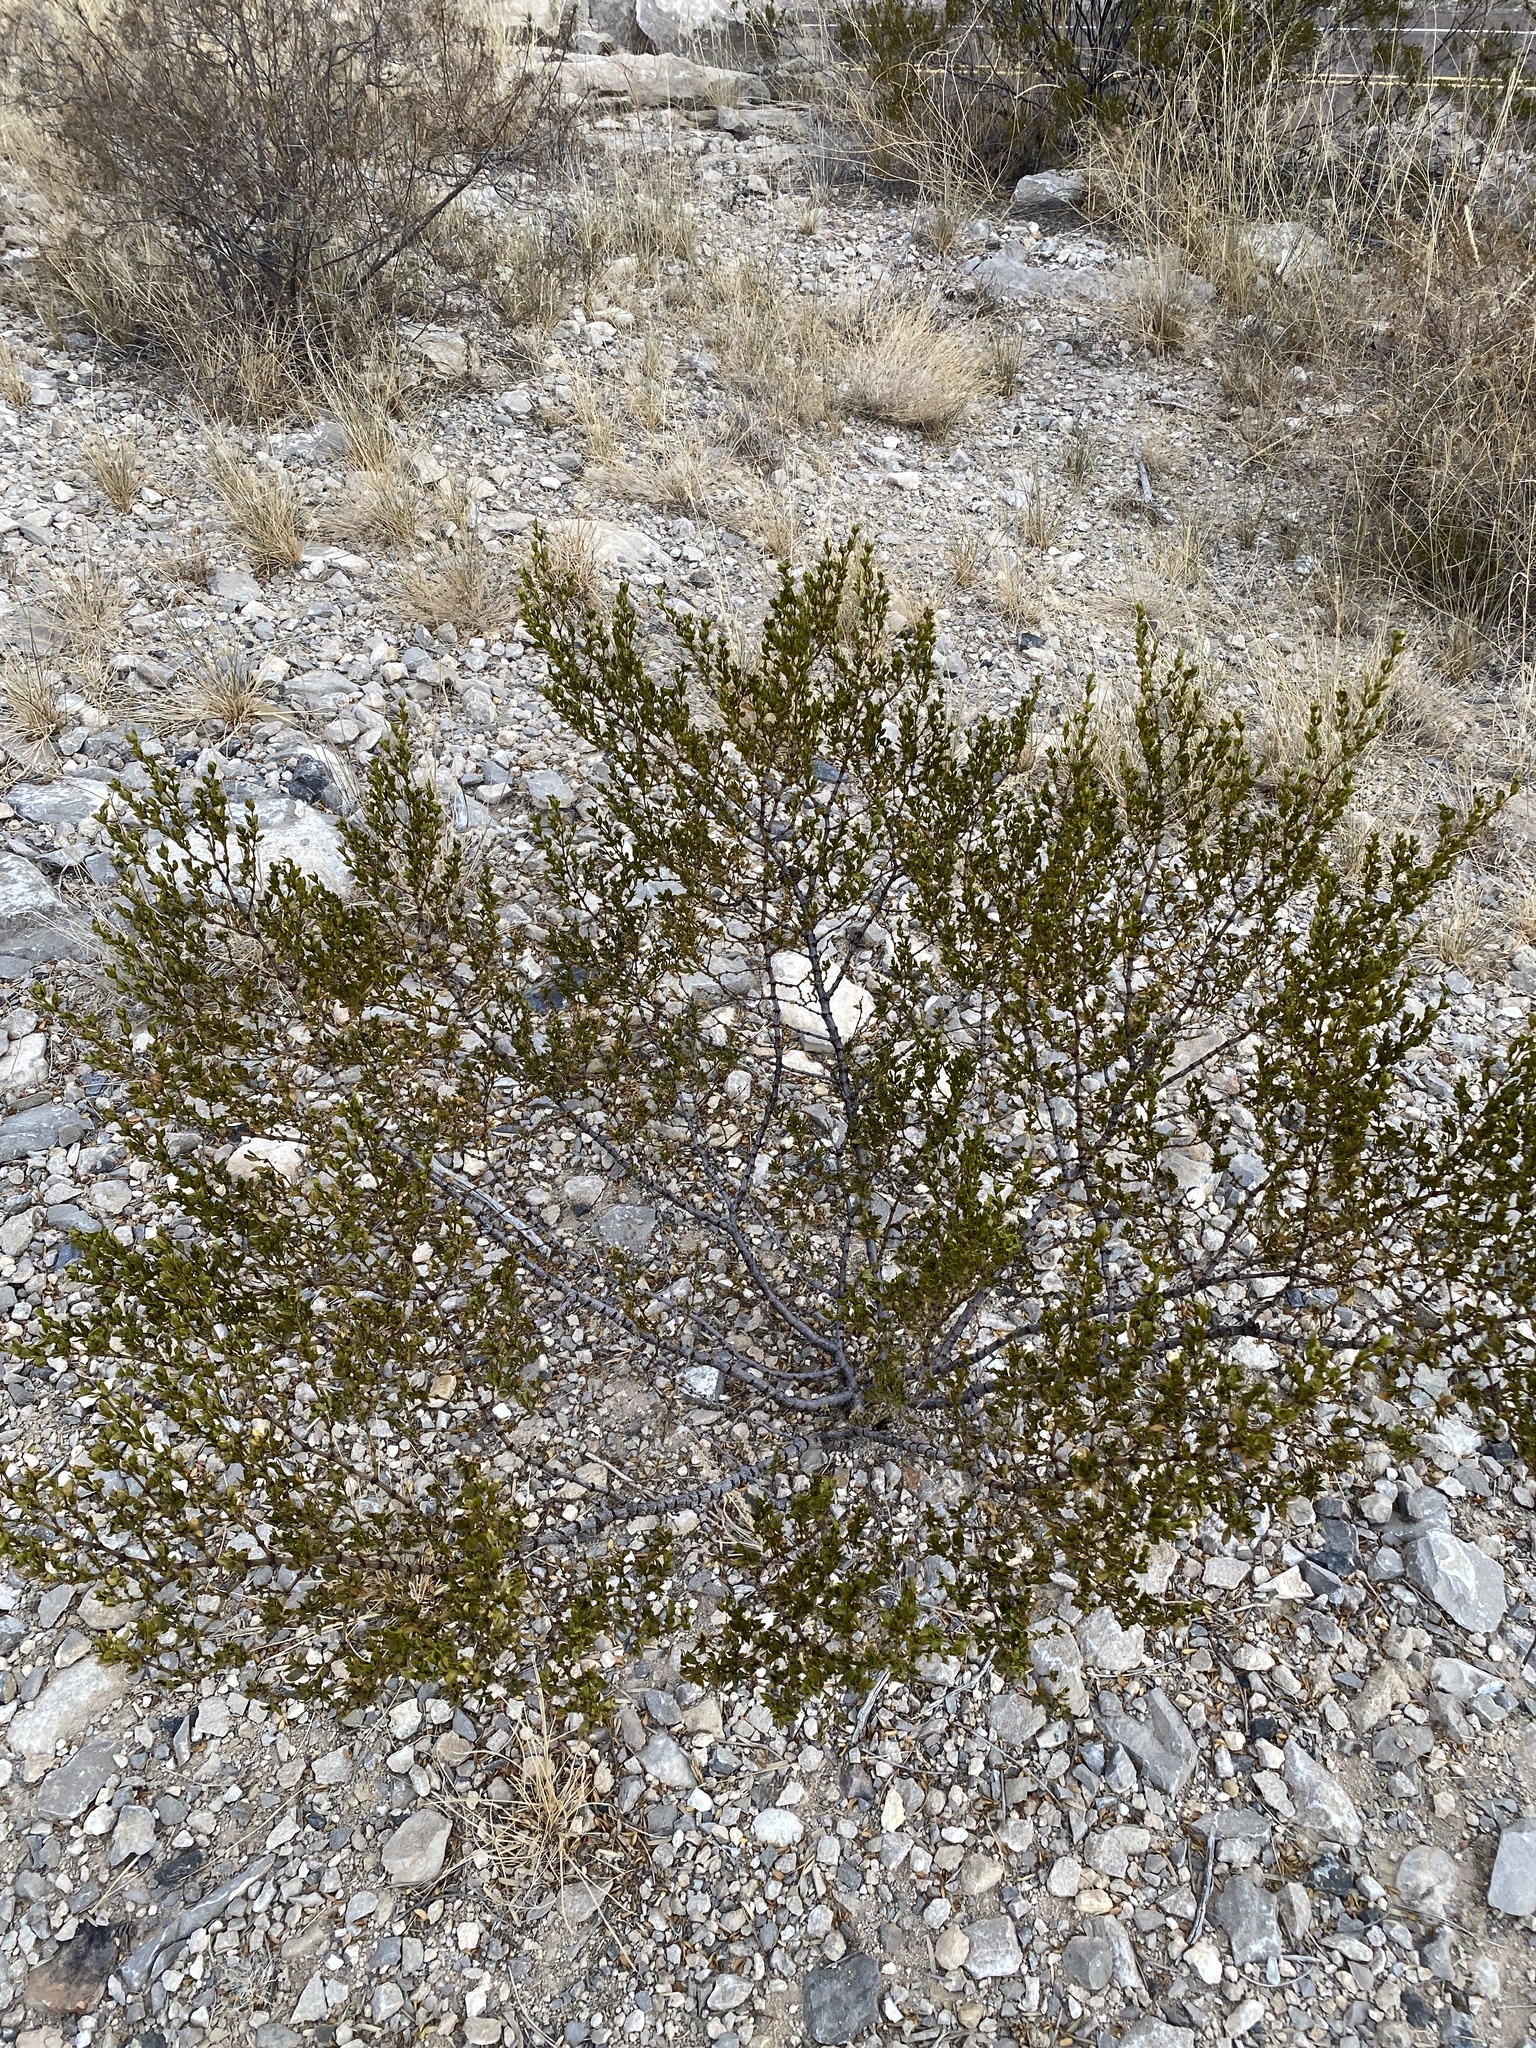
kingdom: Plantae
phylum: Tracheophyta
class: Magnoliopsida
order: Zygophyllales
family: Zygophyllaceae
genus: Larrea
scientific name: Larrea tridentata
